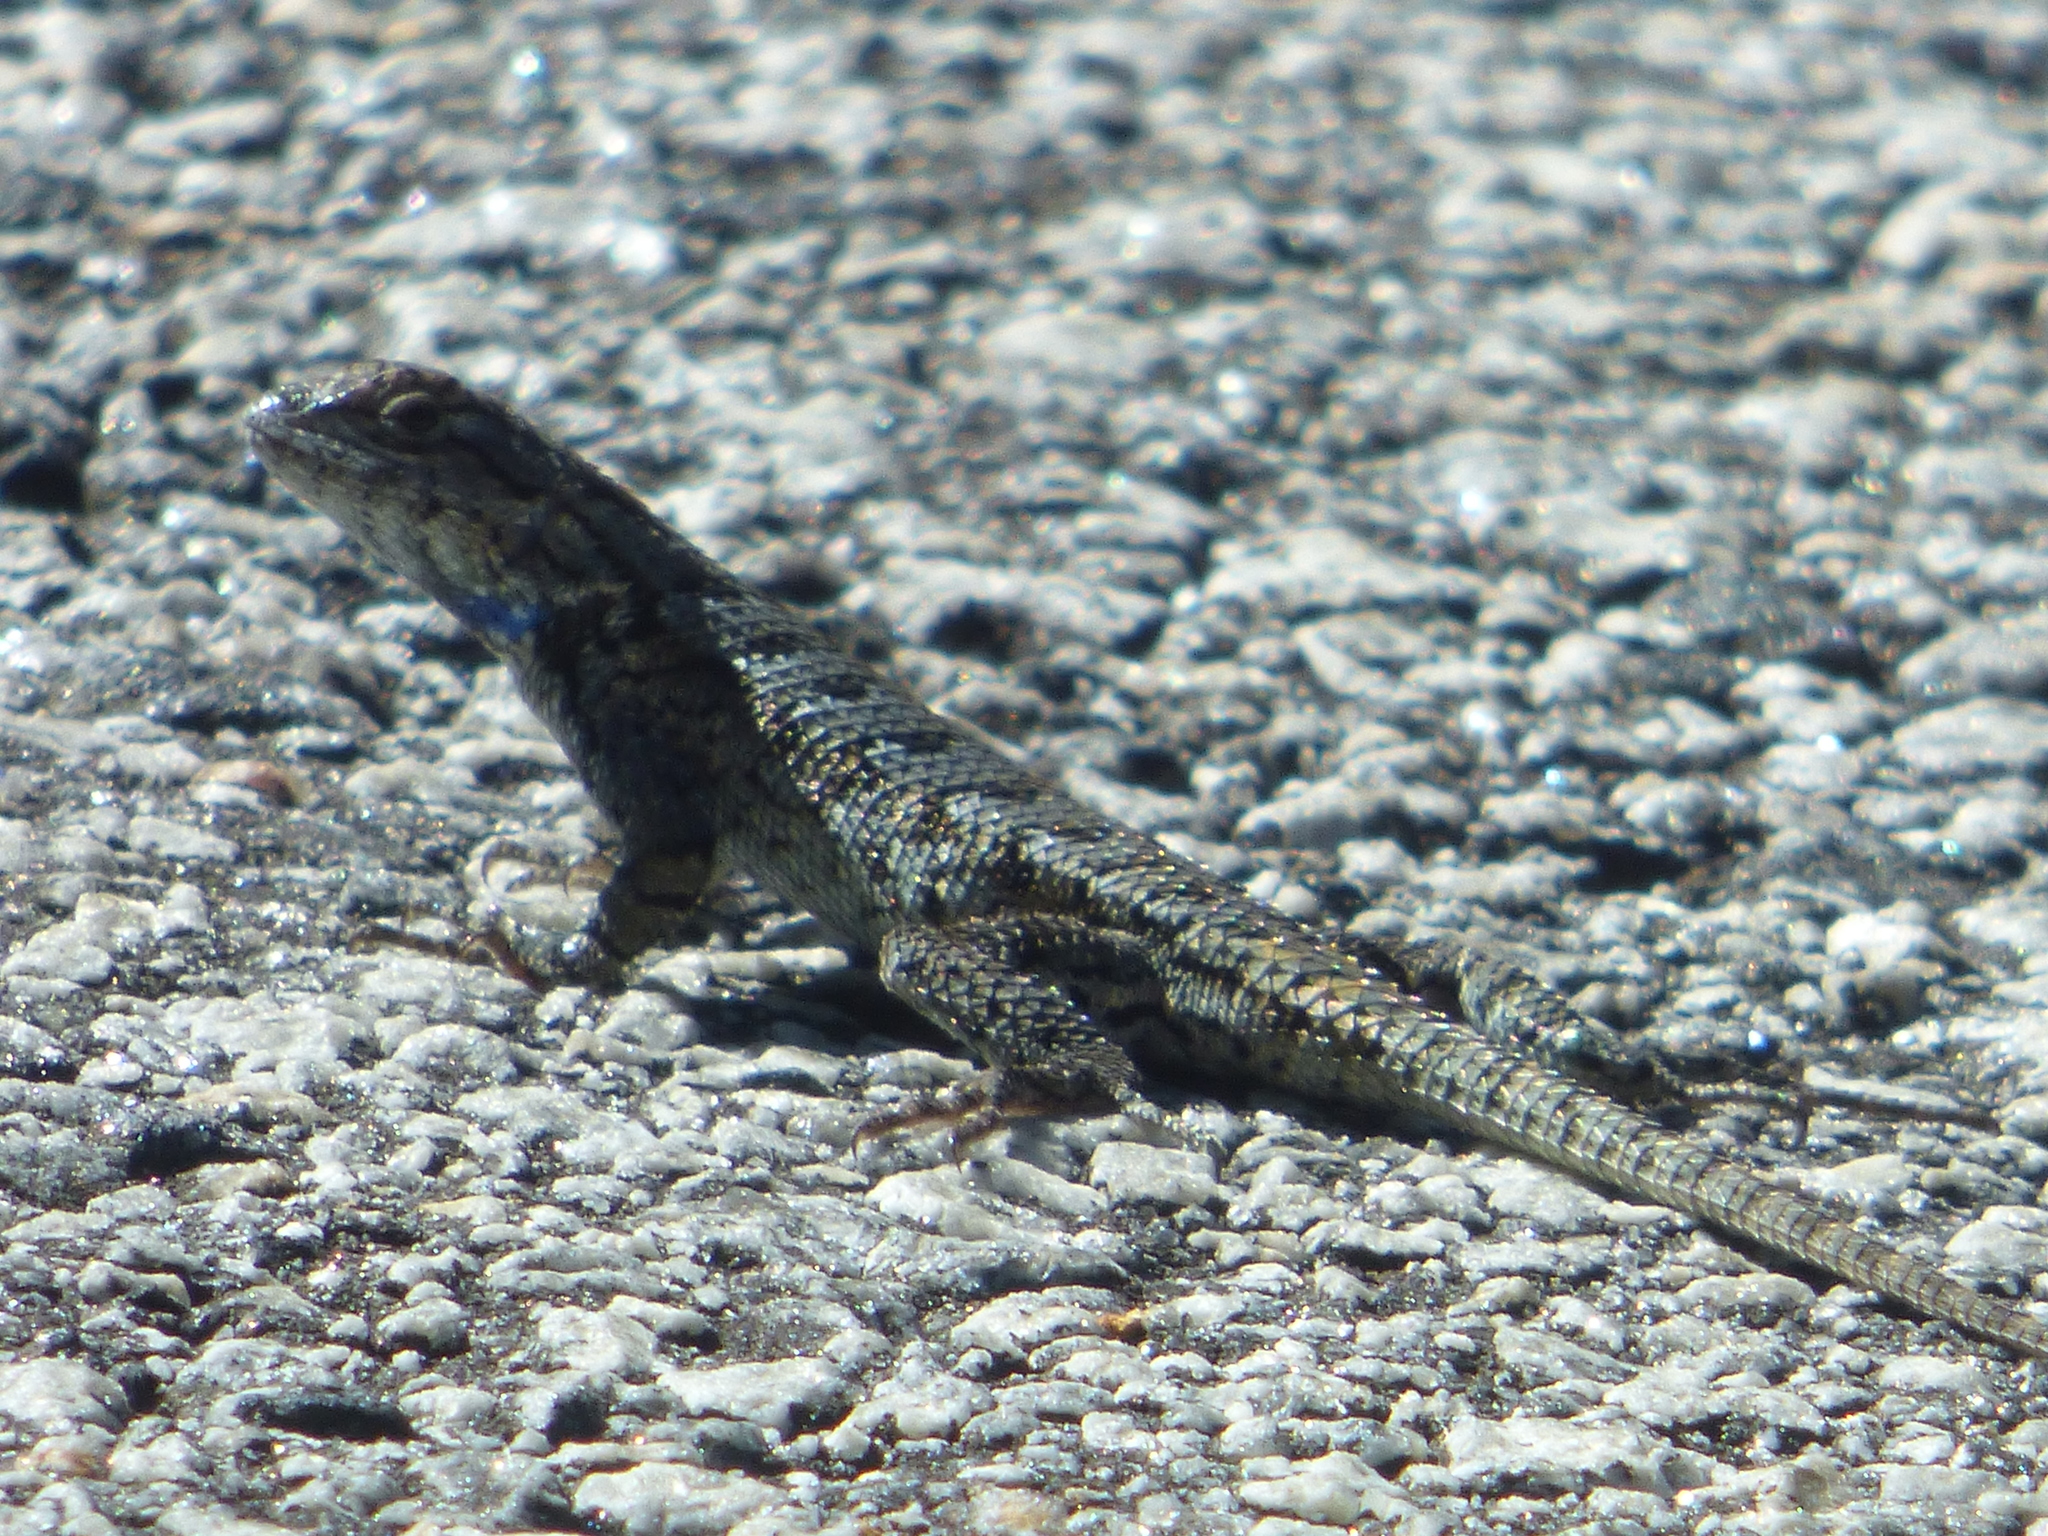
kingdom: Animalia
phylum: Chordata
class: Squamata
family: Phrynosomatidae
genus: Sceloporus
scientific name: Sceloporus undulatus
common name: Eastern fence lizard
